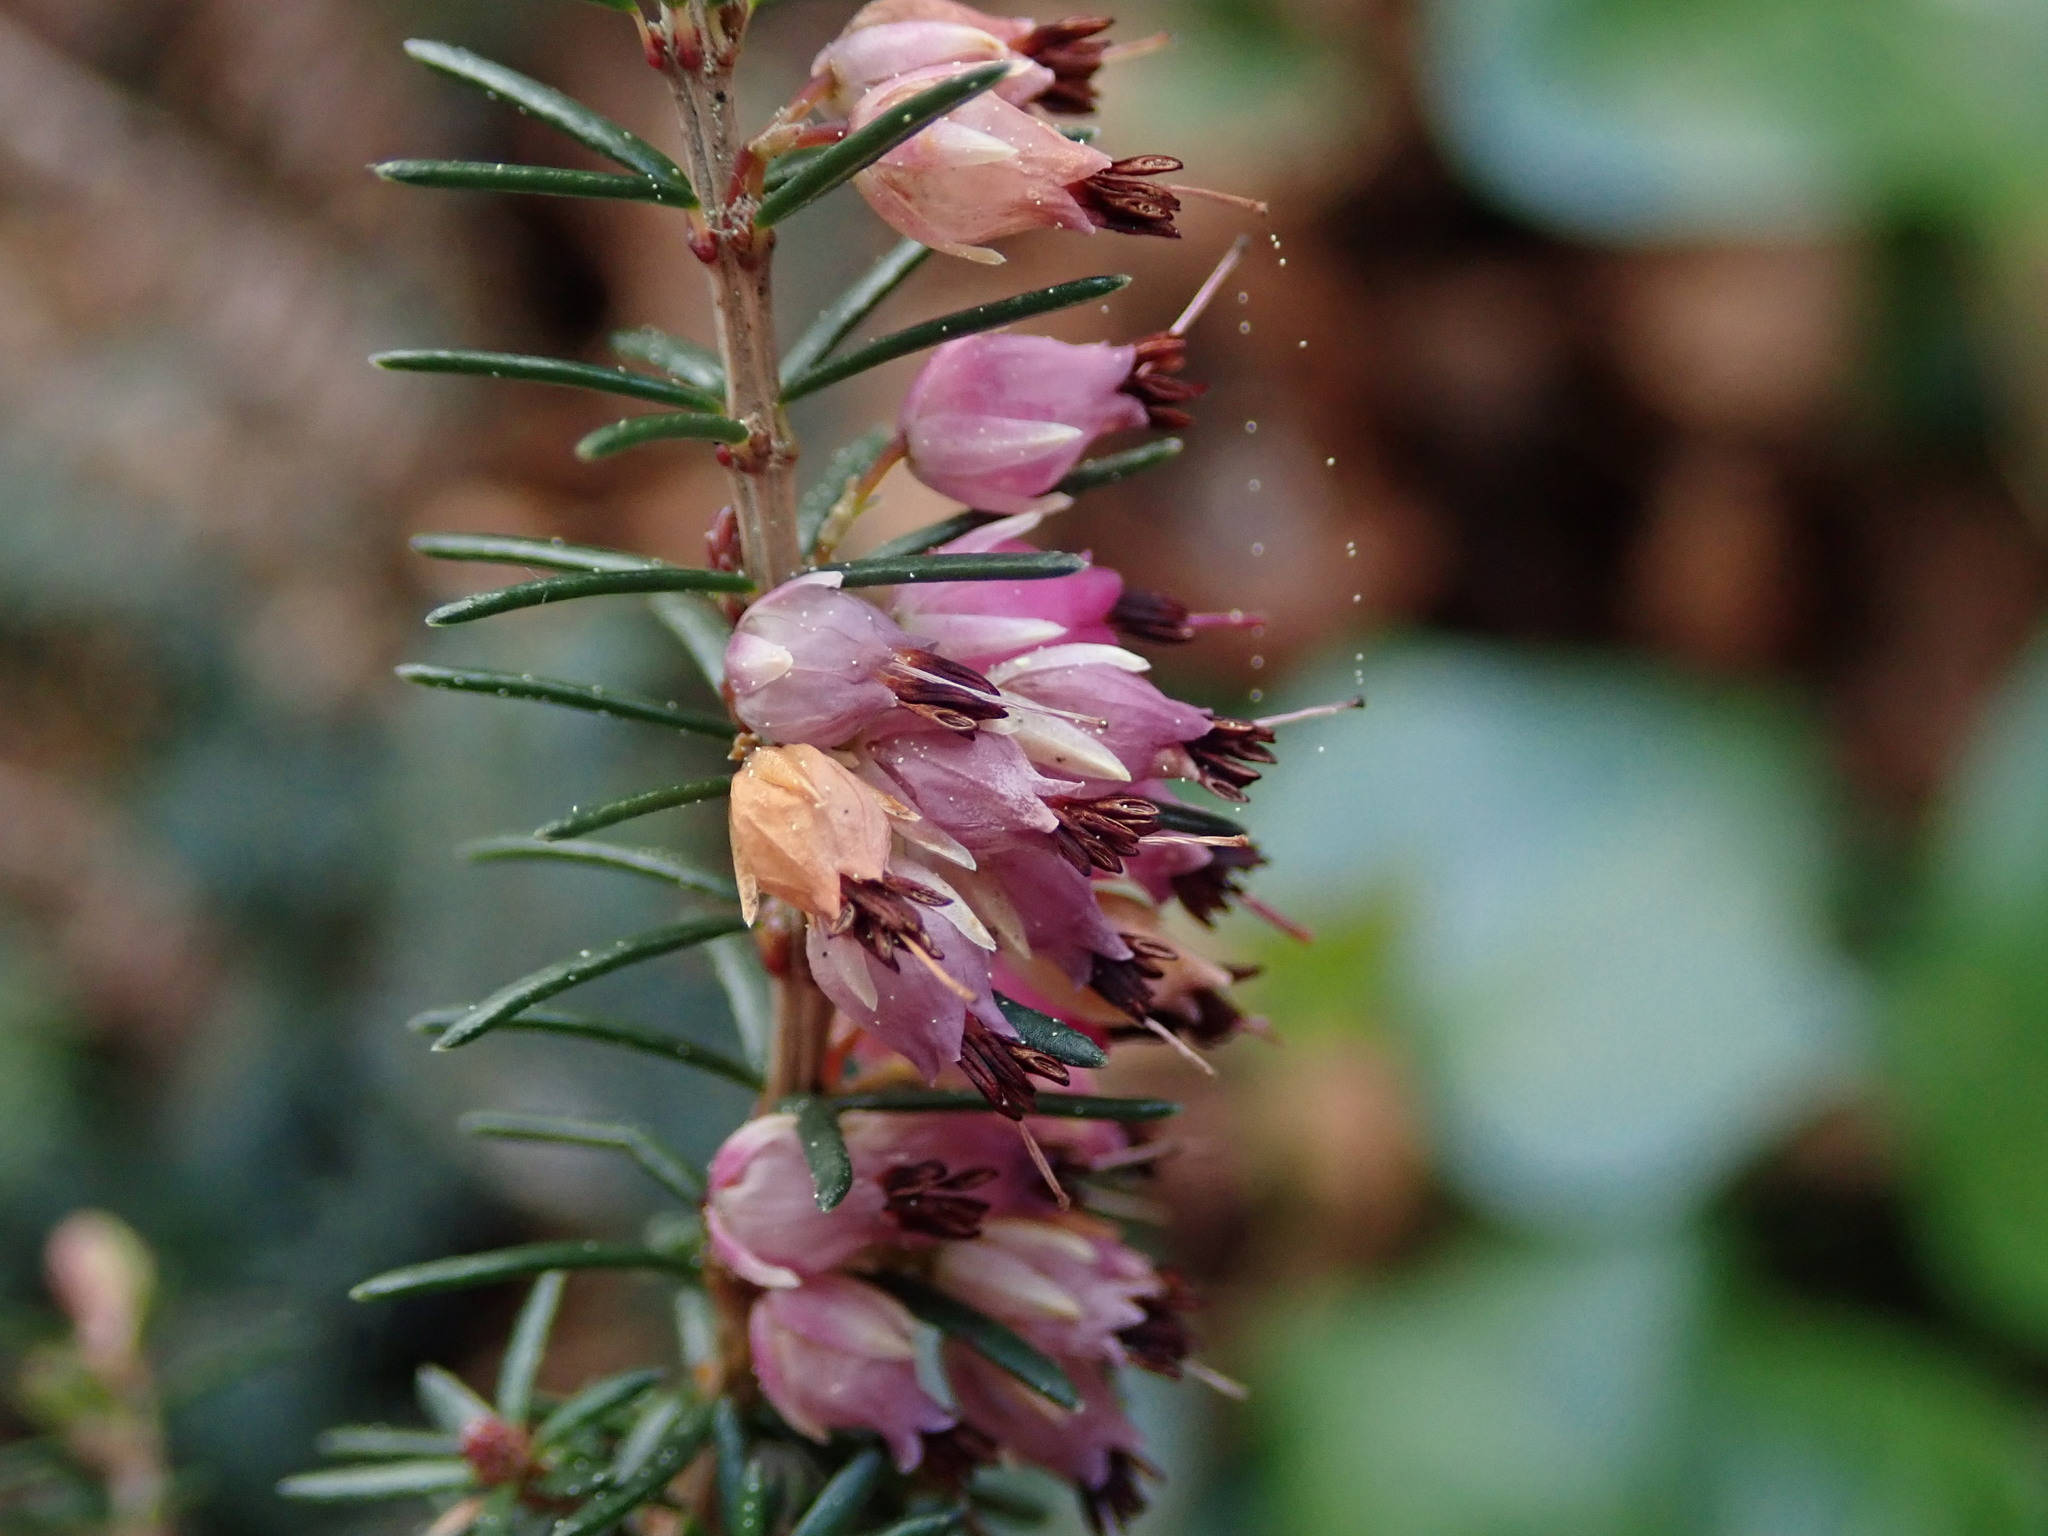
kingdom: Plantae
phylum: Tracheophyta
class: Magnoliopsida
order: Ericales
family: Ericaceae
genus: Erica
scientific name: Erica erigena
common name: Irish heath
